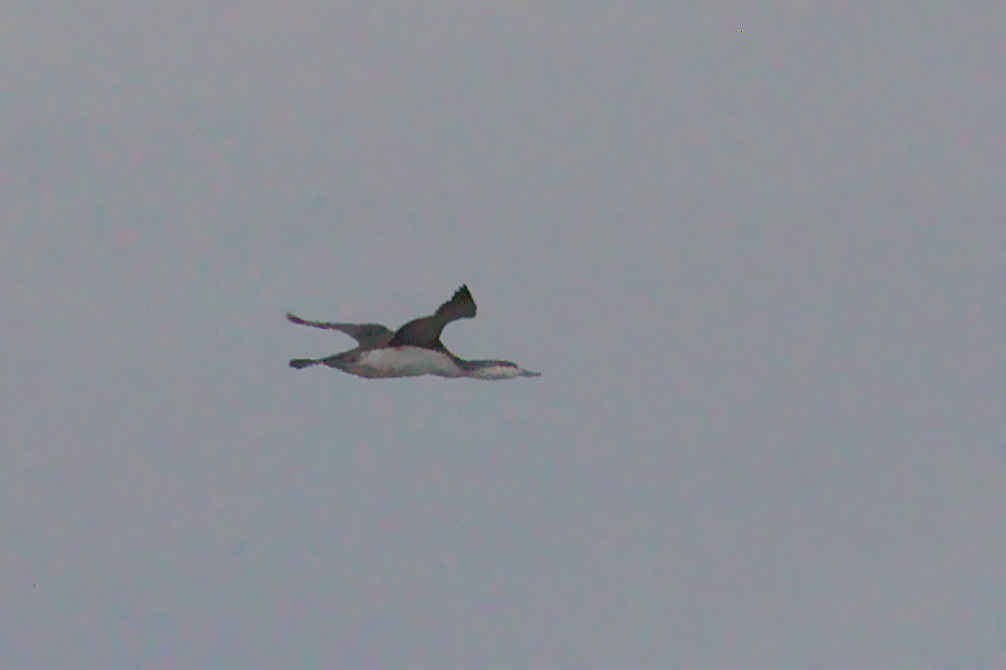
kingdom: Animalia
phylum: Chordata
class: Aves
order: Gaviiformes
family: Gaviidae
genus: Gavia
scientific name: Gavia stellata
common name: Red-throated loon
